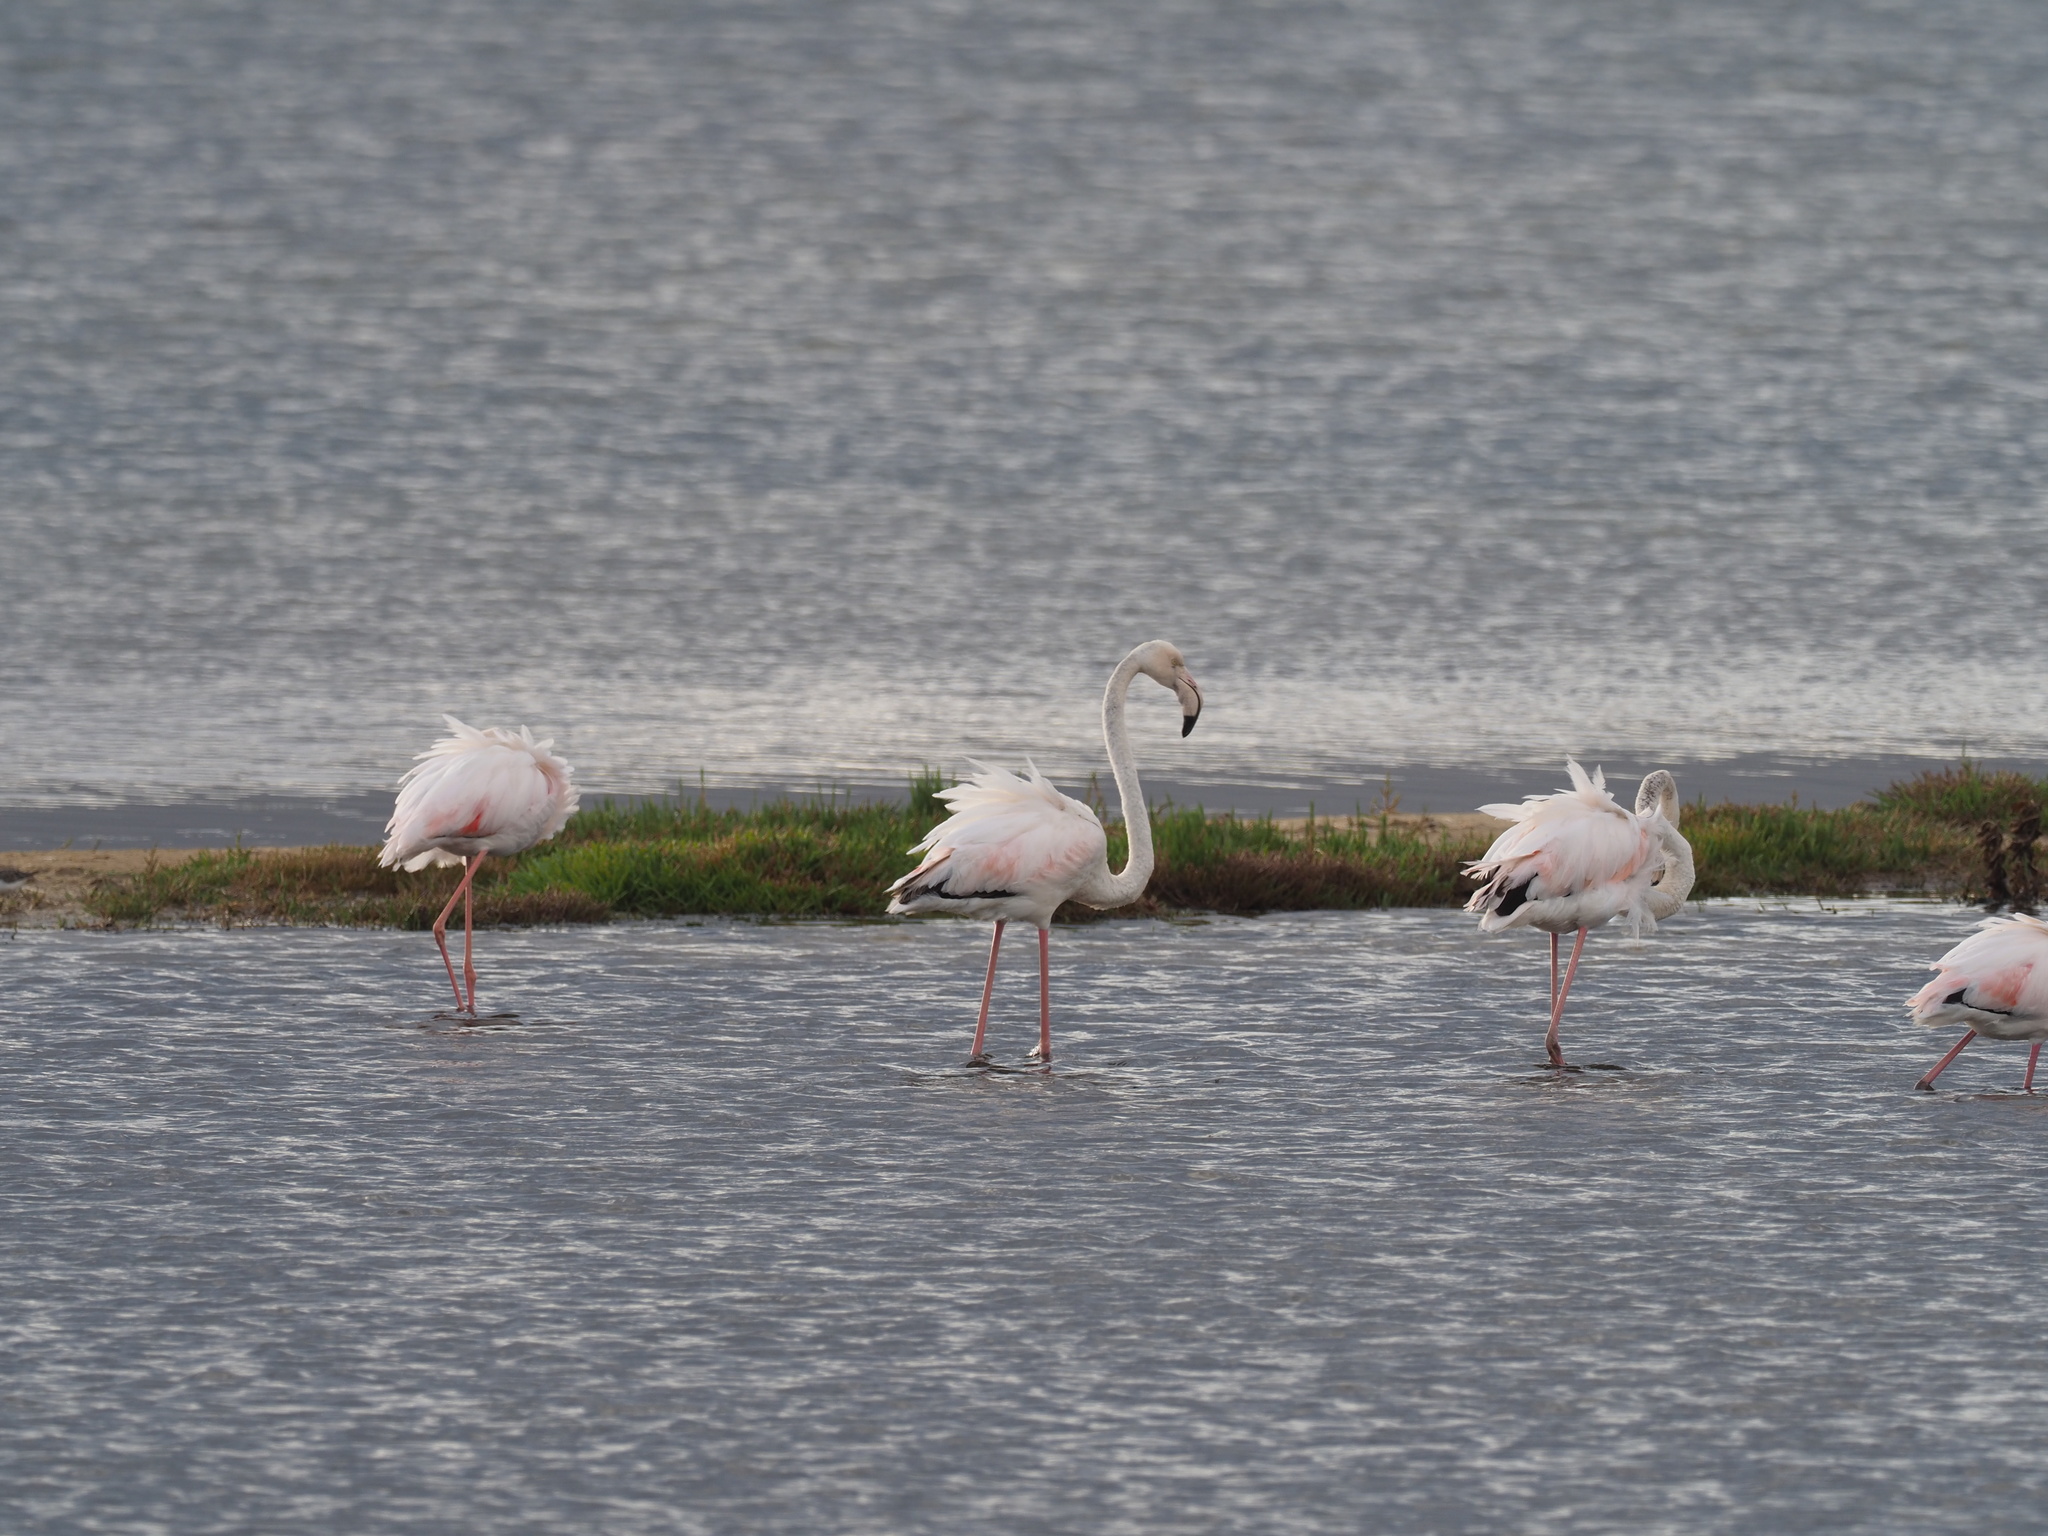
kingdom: Animalia
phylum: Chordata
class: Aves
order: Phoenicopteriformes
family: Phoenicopteridae
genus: Phoenicopterus
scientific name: Phoenicopterus roseus
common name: Greater flamingo
